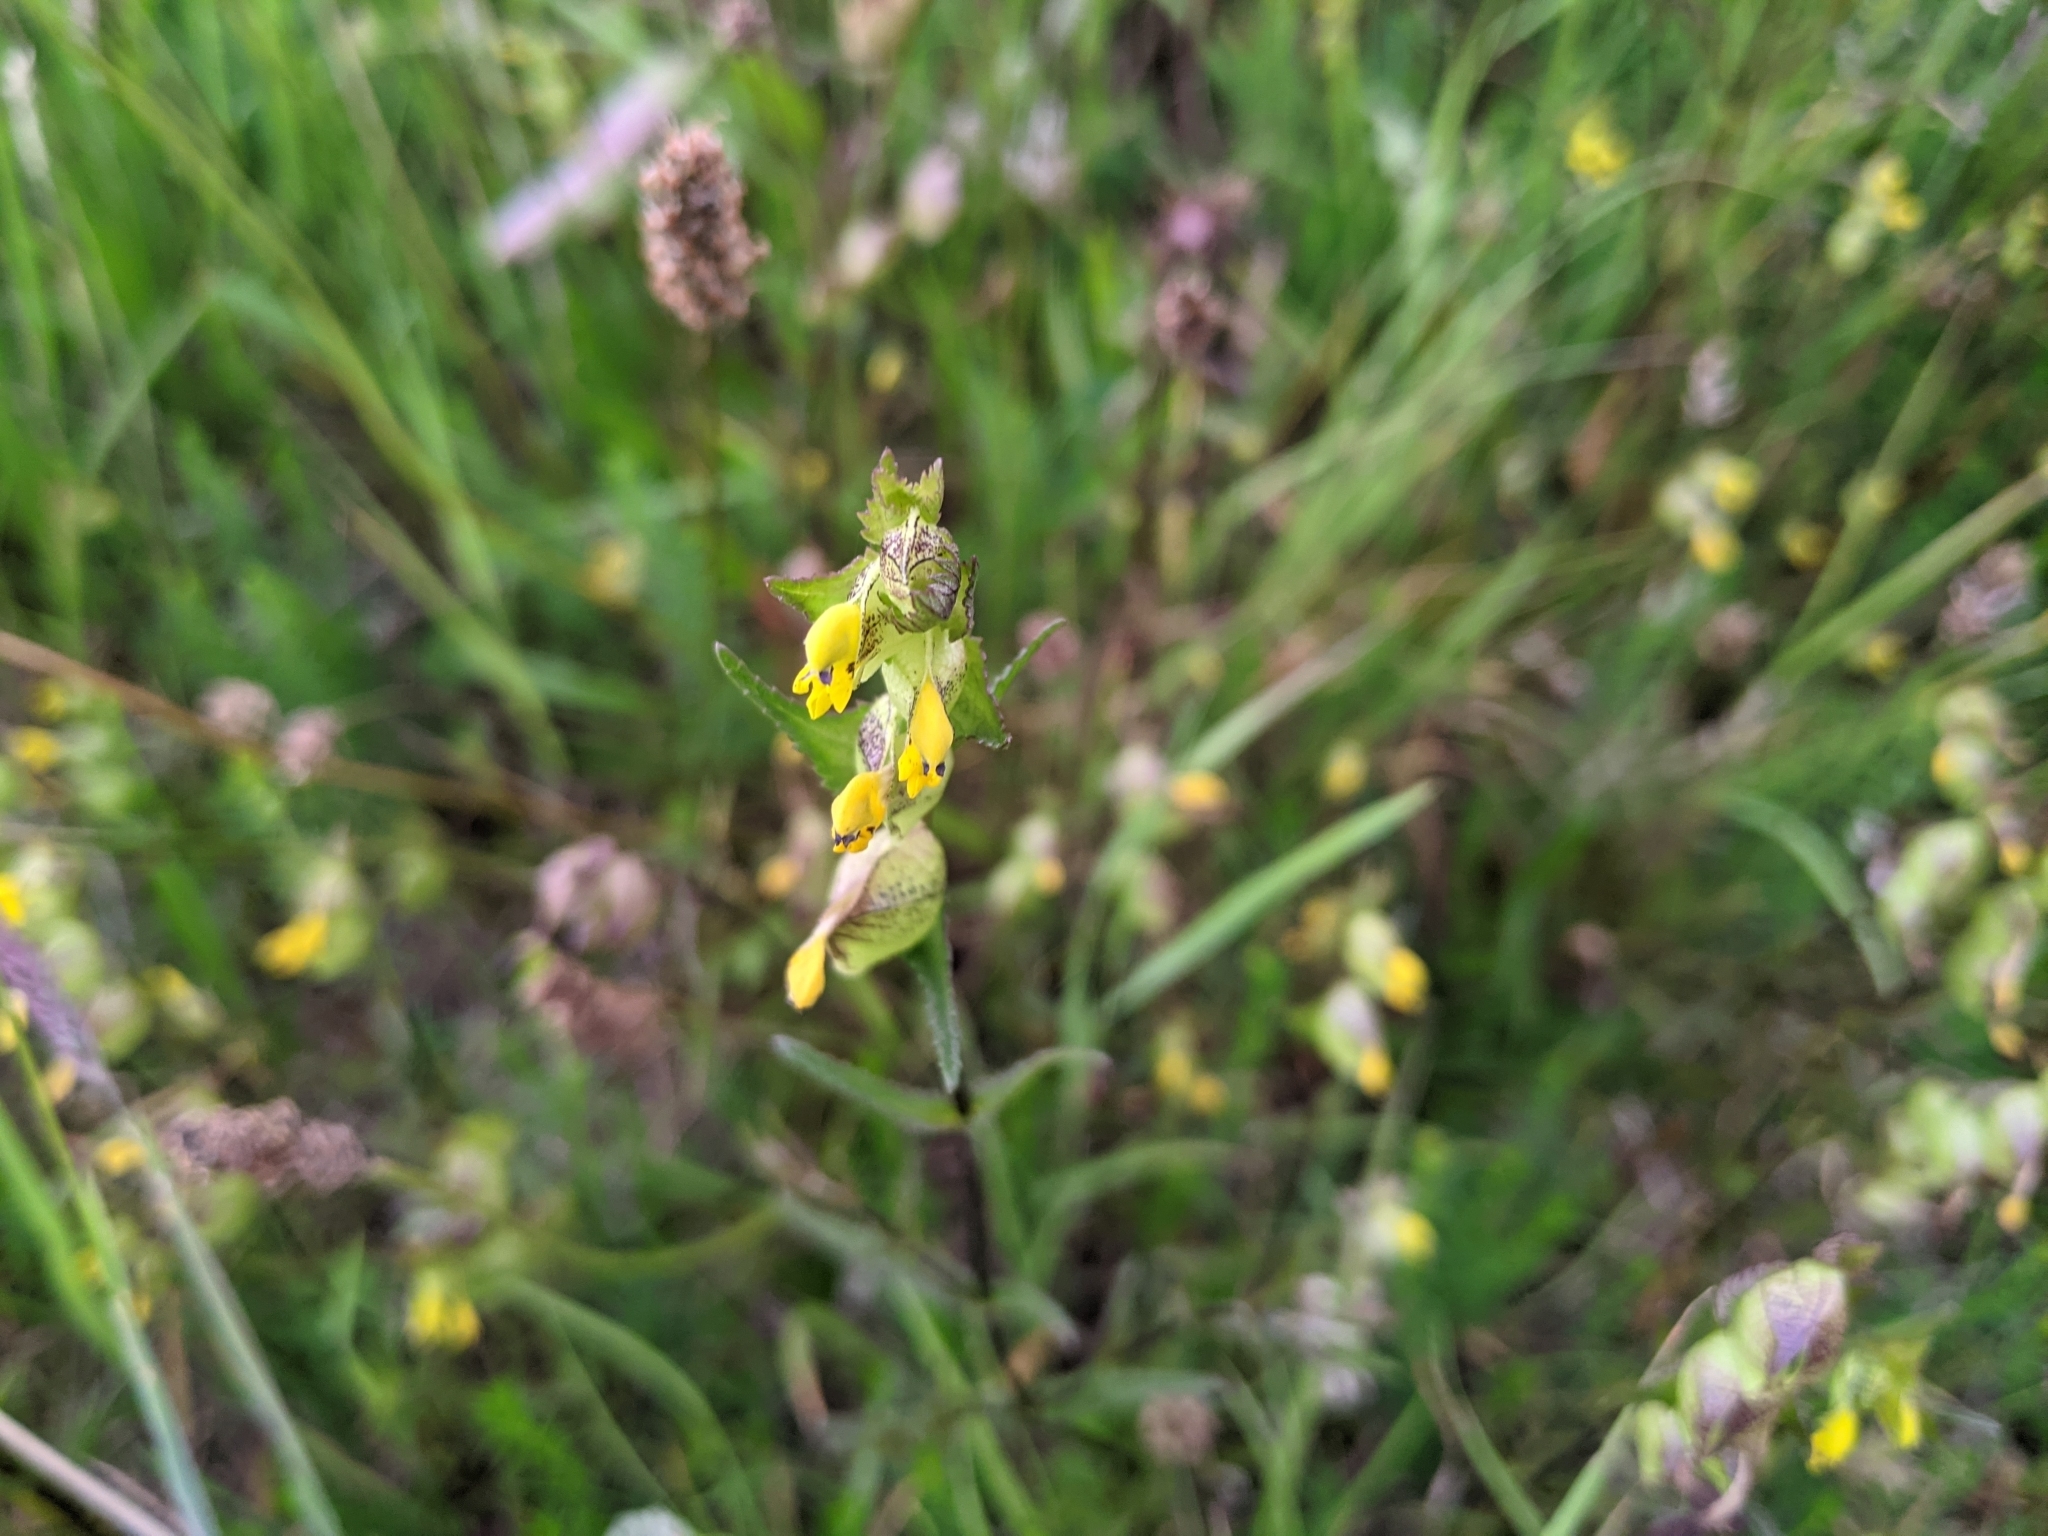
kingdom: Plantae
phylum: Tracheophyta
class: Magnoliopsida
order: Lamiales
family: Orobanchaceae
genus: Rhinanthus
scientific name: Rhinanthus minor
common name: Yellow-rattle
